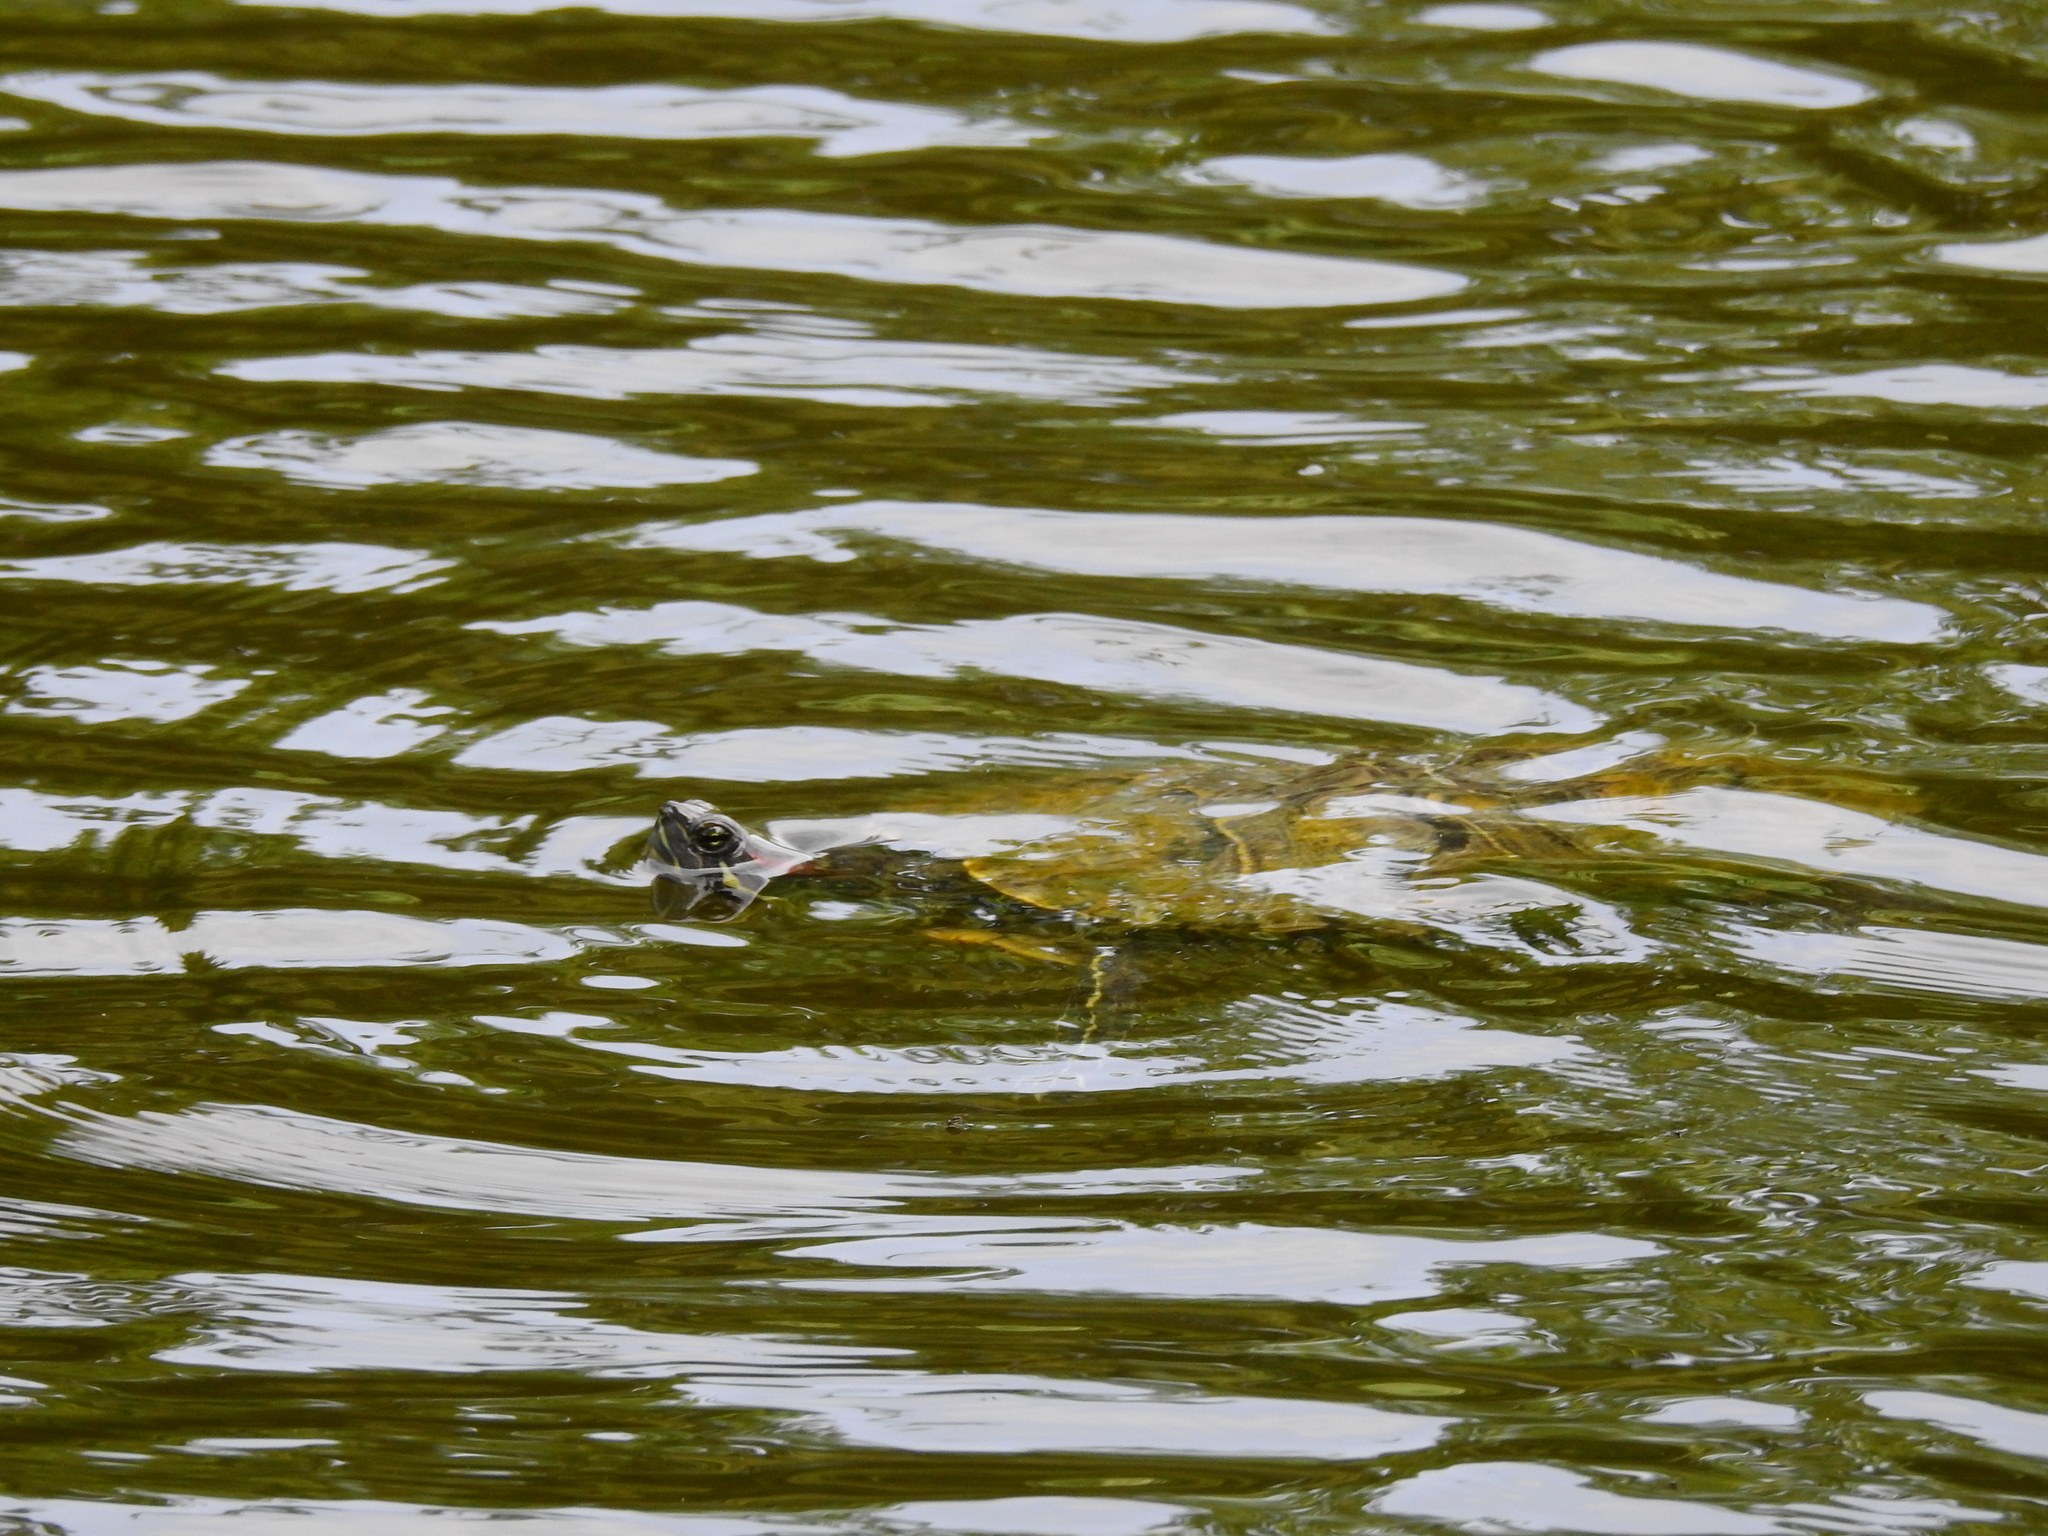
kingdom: Animalia
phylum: Chordata
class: Testudines
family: Emydidae
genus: Trachemys
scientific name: Trachemys scripta
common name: Slider
